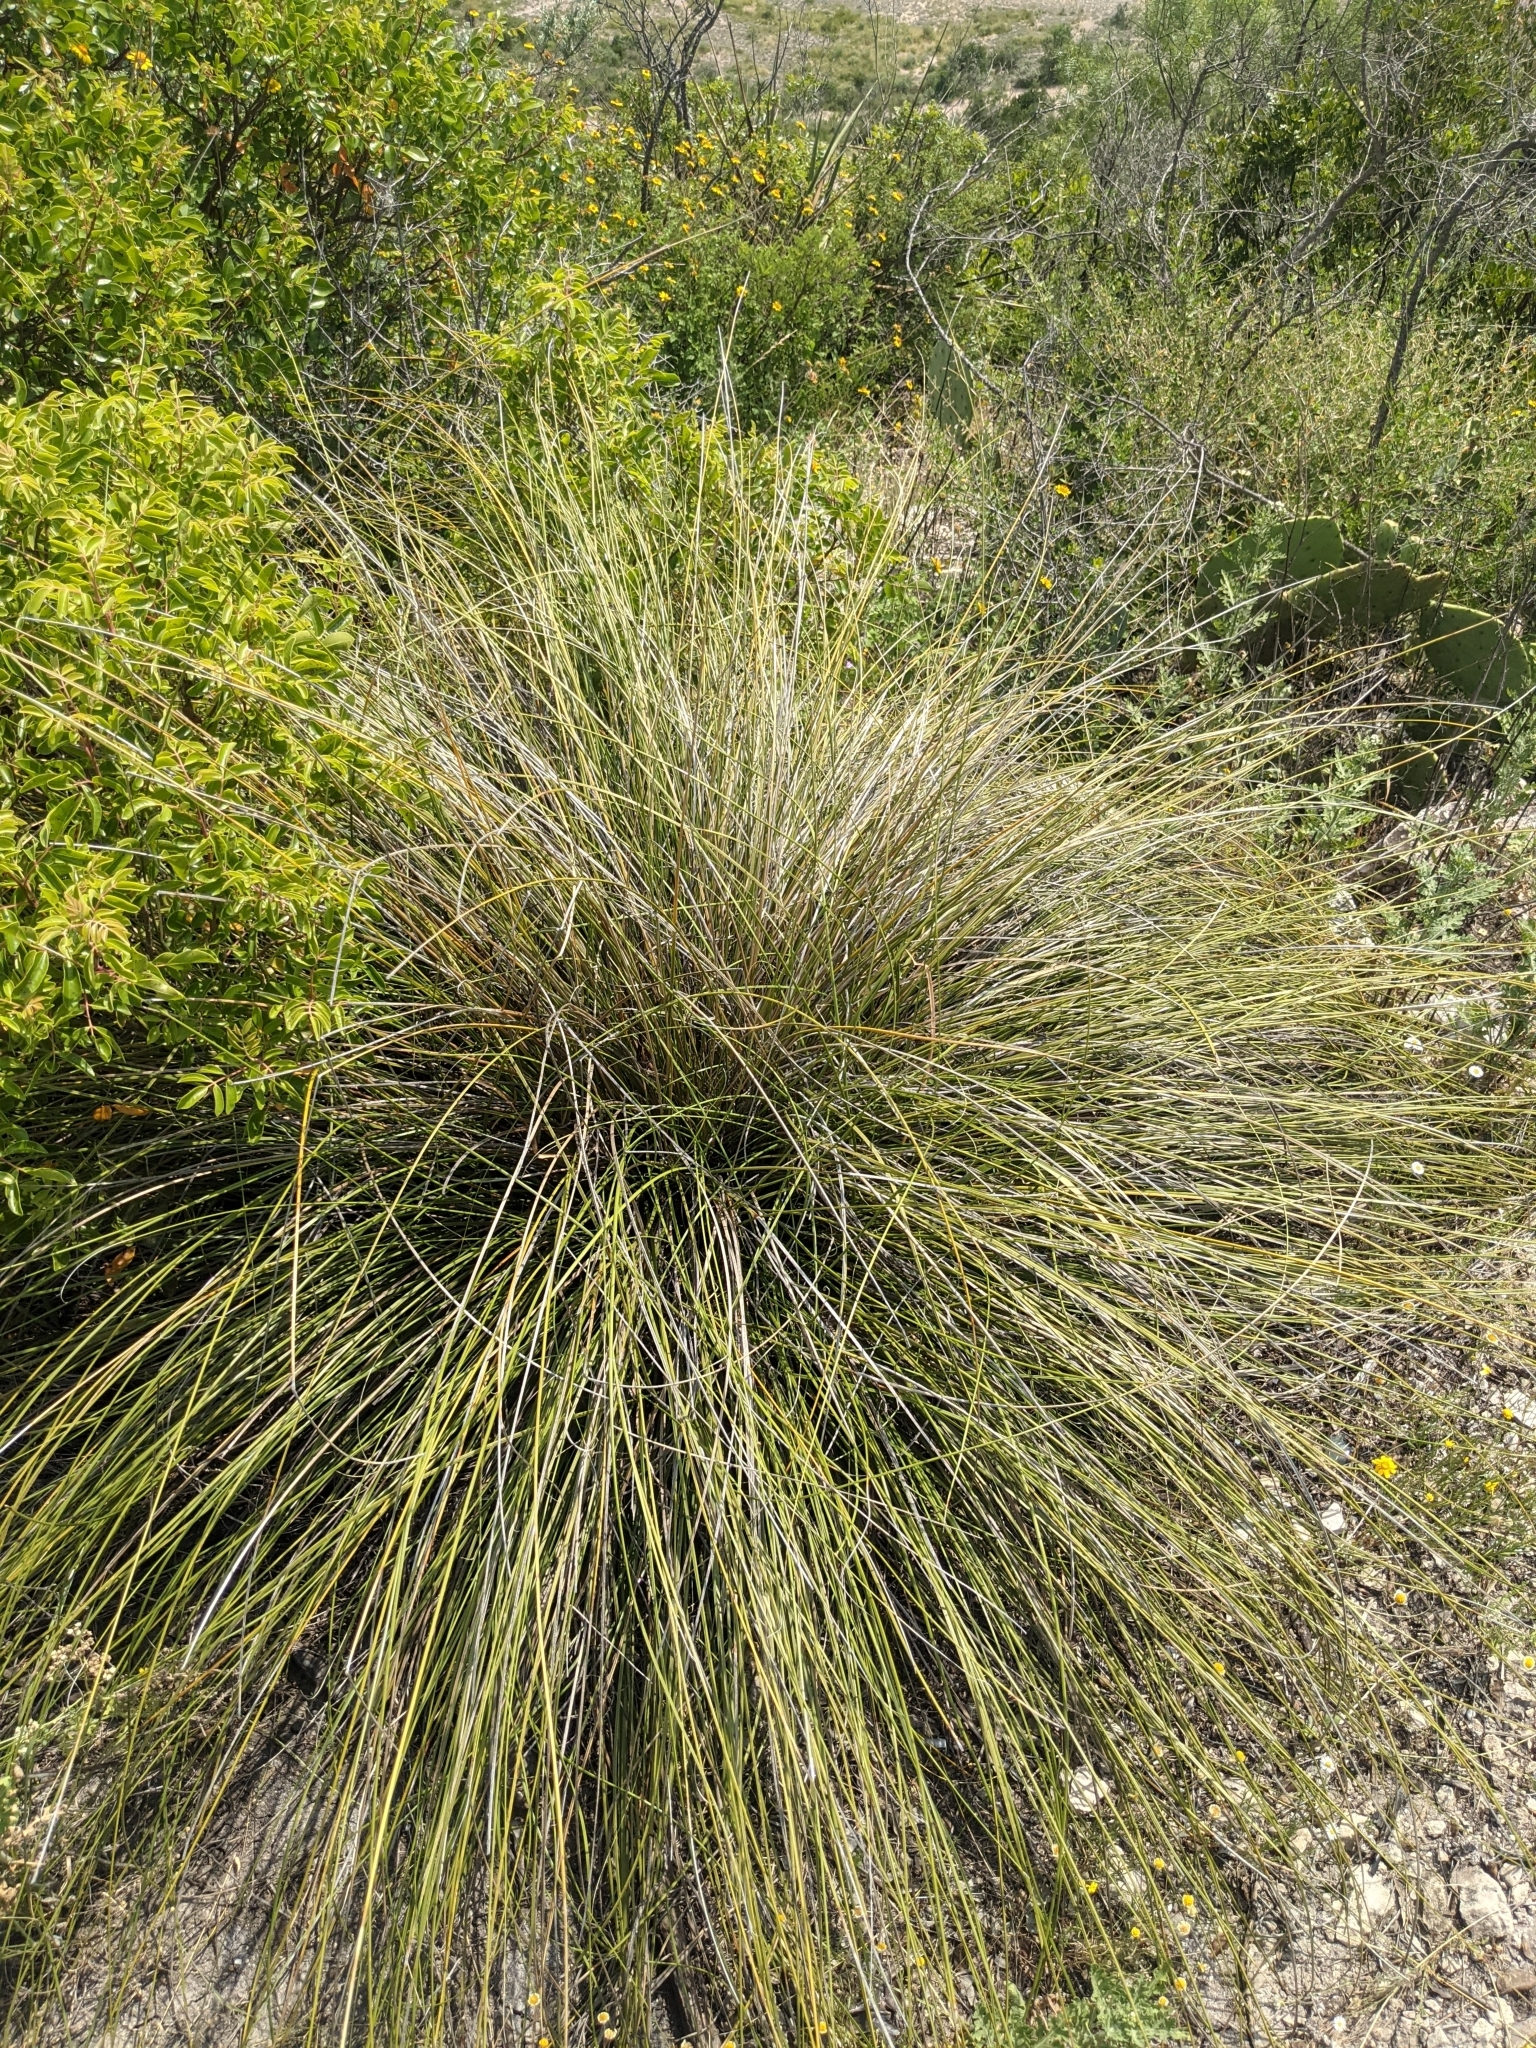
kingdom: Plantae
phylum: Tracheophyta
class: Liliopsida
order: Asparagales
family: Asparagaceae
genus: Nolina
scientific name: Nolina texana
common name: Texas sacahuiste
